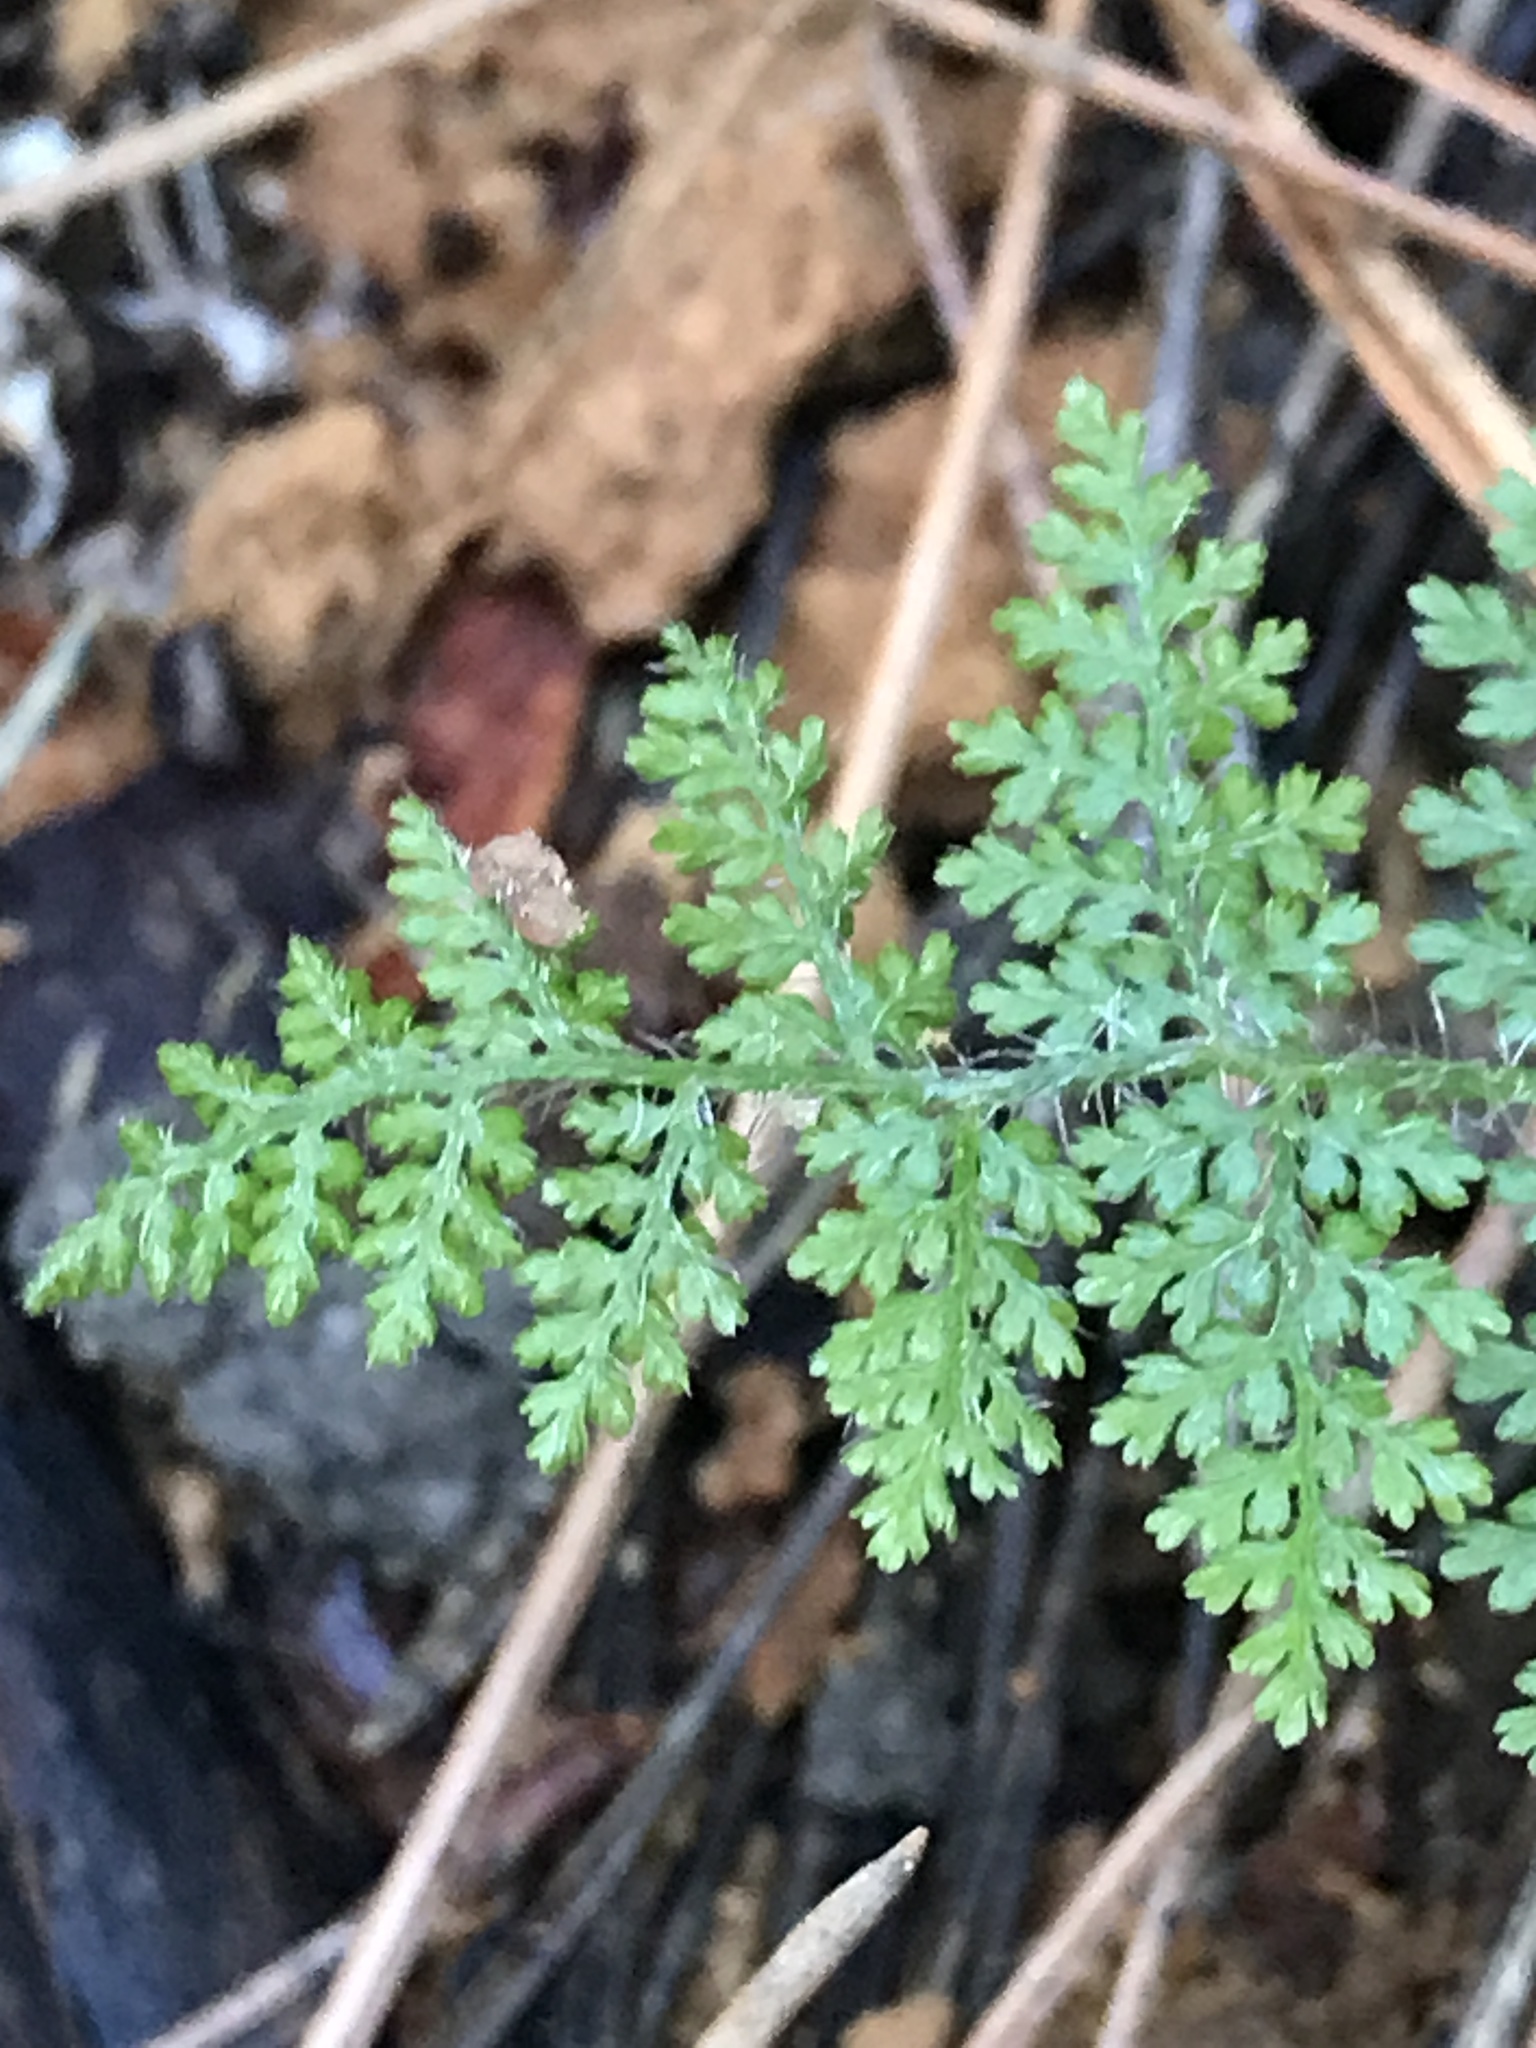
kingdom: Plantae
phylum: Tracheophyta
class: Polypodiopsida
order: Polypodiales
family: Dennstaedtiaceae
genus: Hypolepis
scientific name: Hypolepis millefolium
